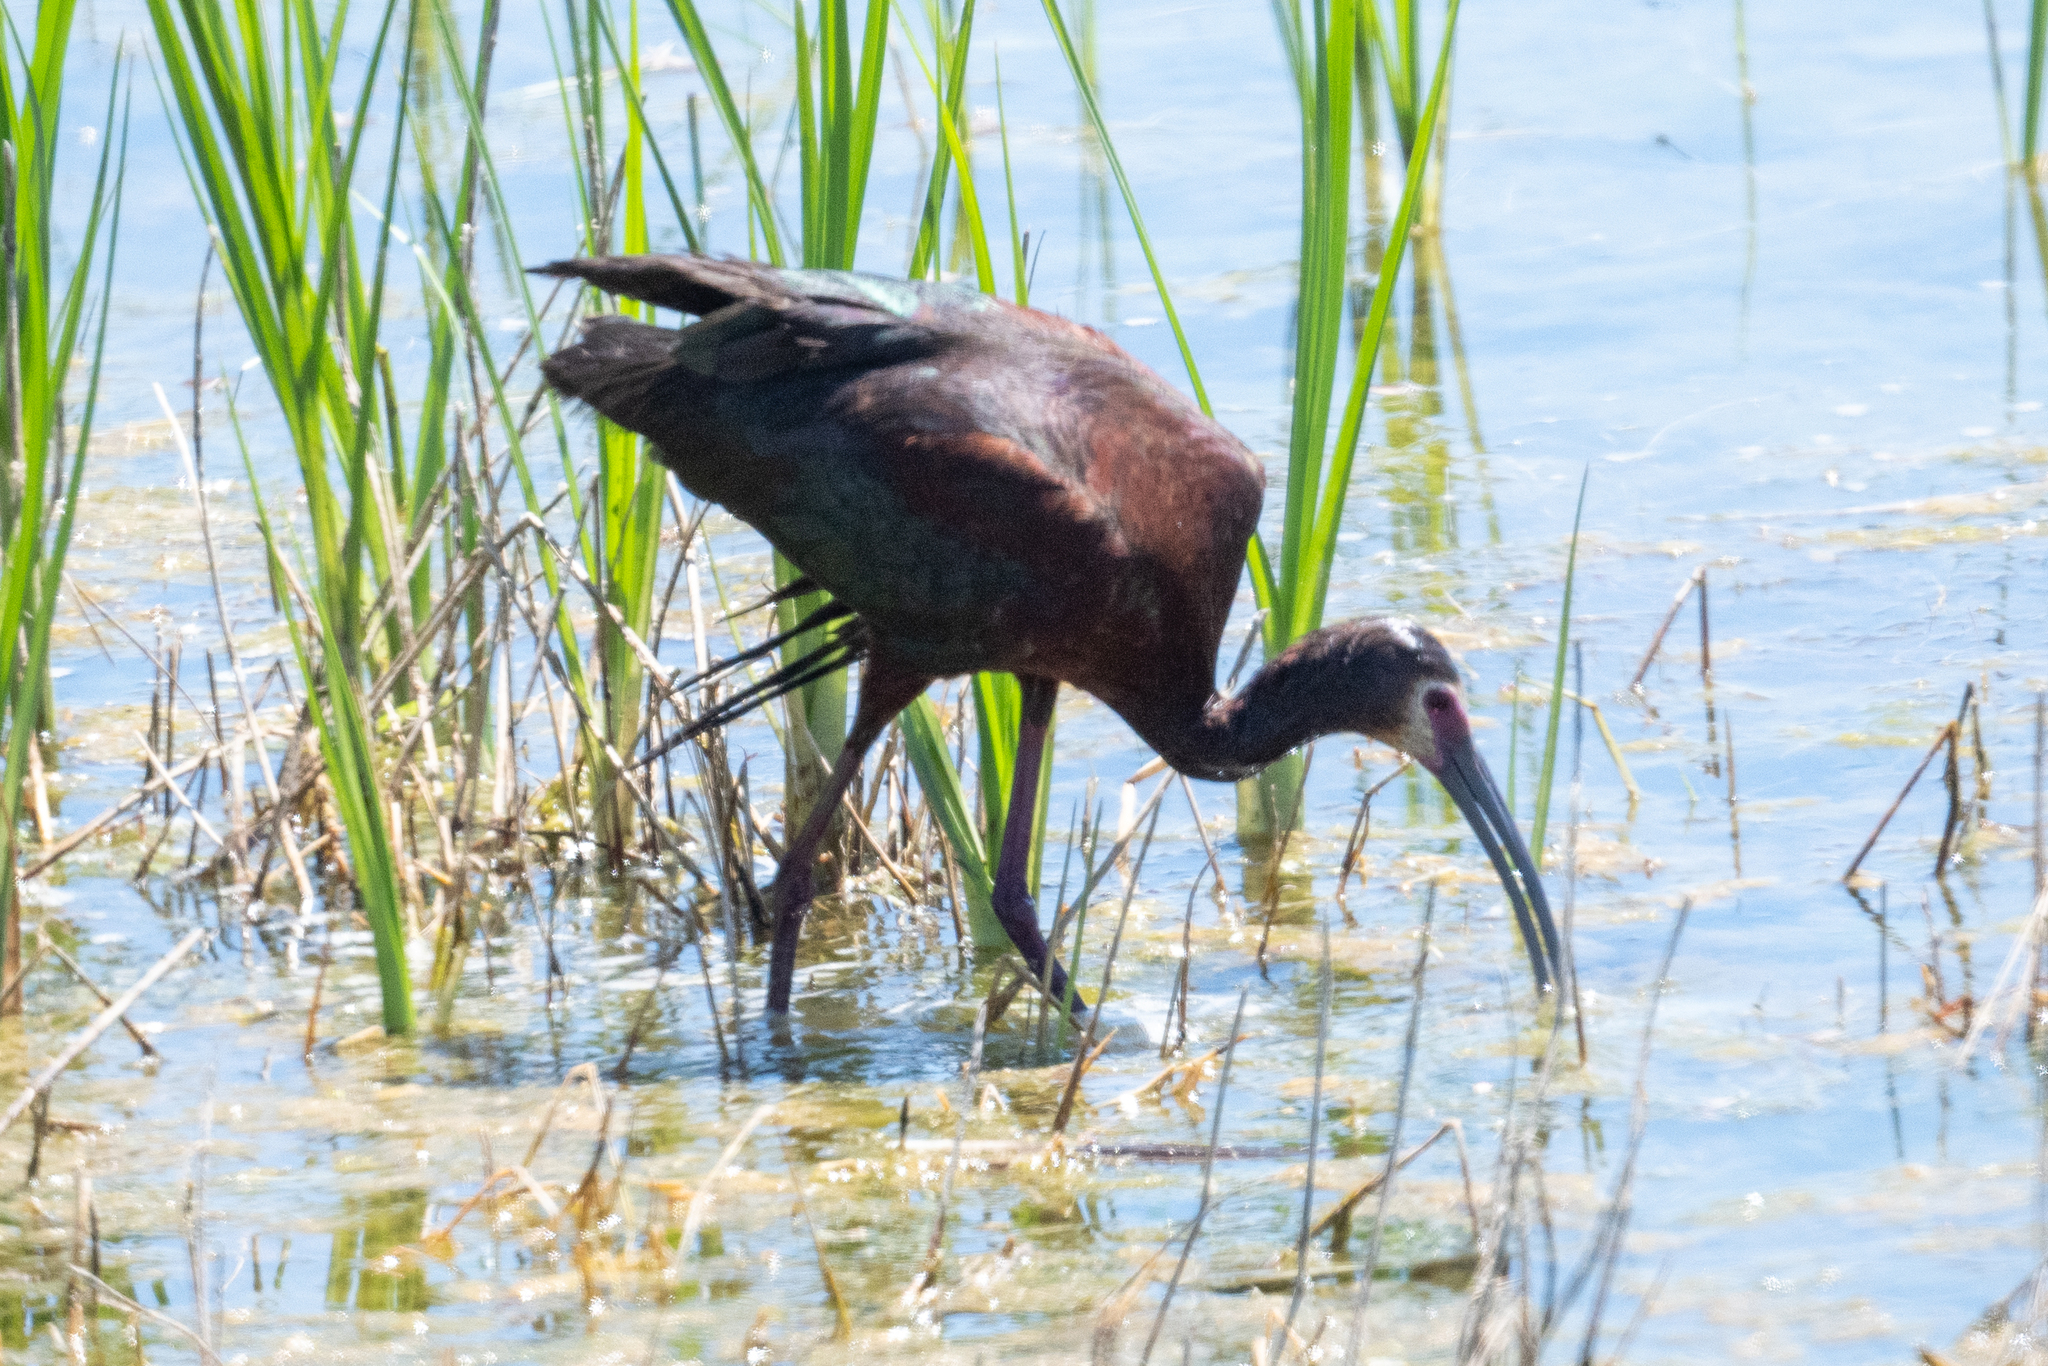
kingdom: Animalia
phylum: Chordata
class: Aves
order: Pelecaniformes
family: Threskiornithidae
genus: Plegadis
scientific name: Plegadis chihi
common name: White-faced ibis
